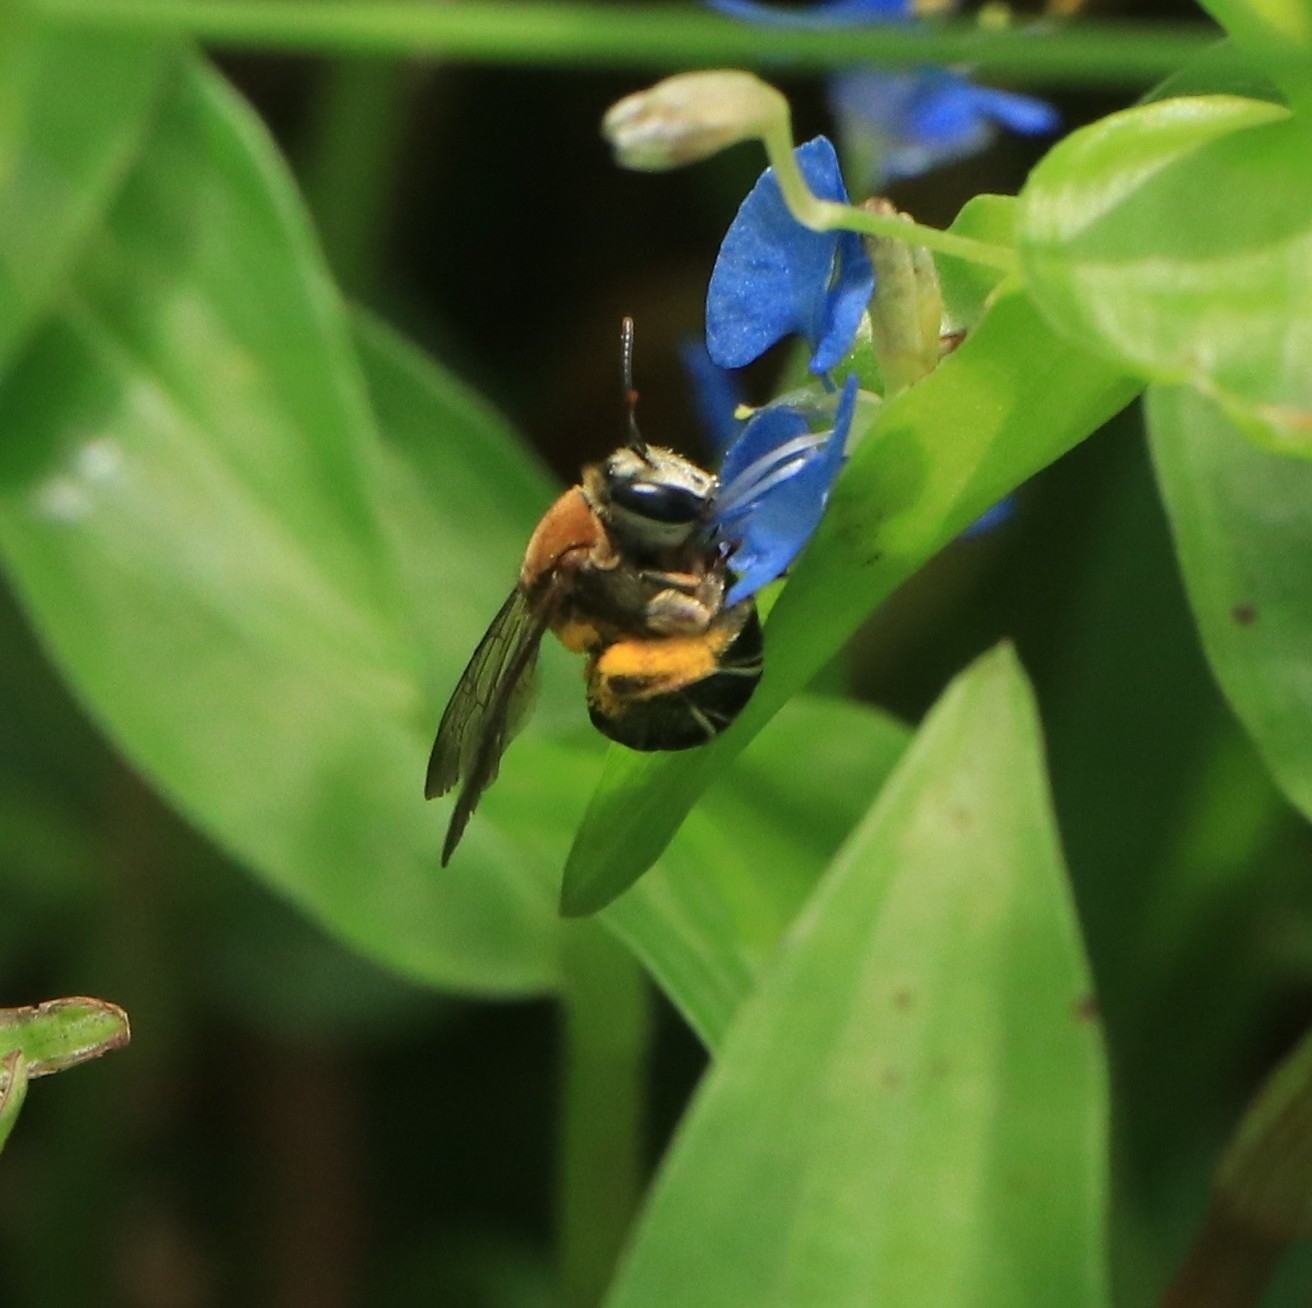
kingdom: Animalia
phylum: Arthropoda
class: Insecta
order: Hymenoptera
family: Halictidae
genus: Nomia
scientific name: Nomia thoracica
